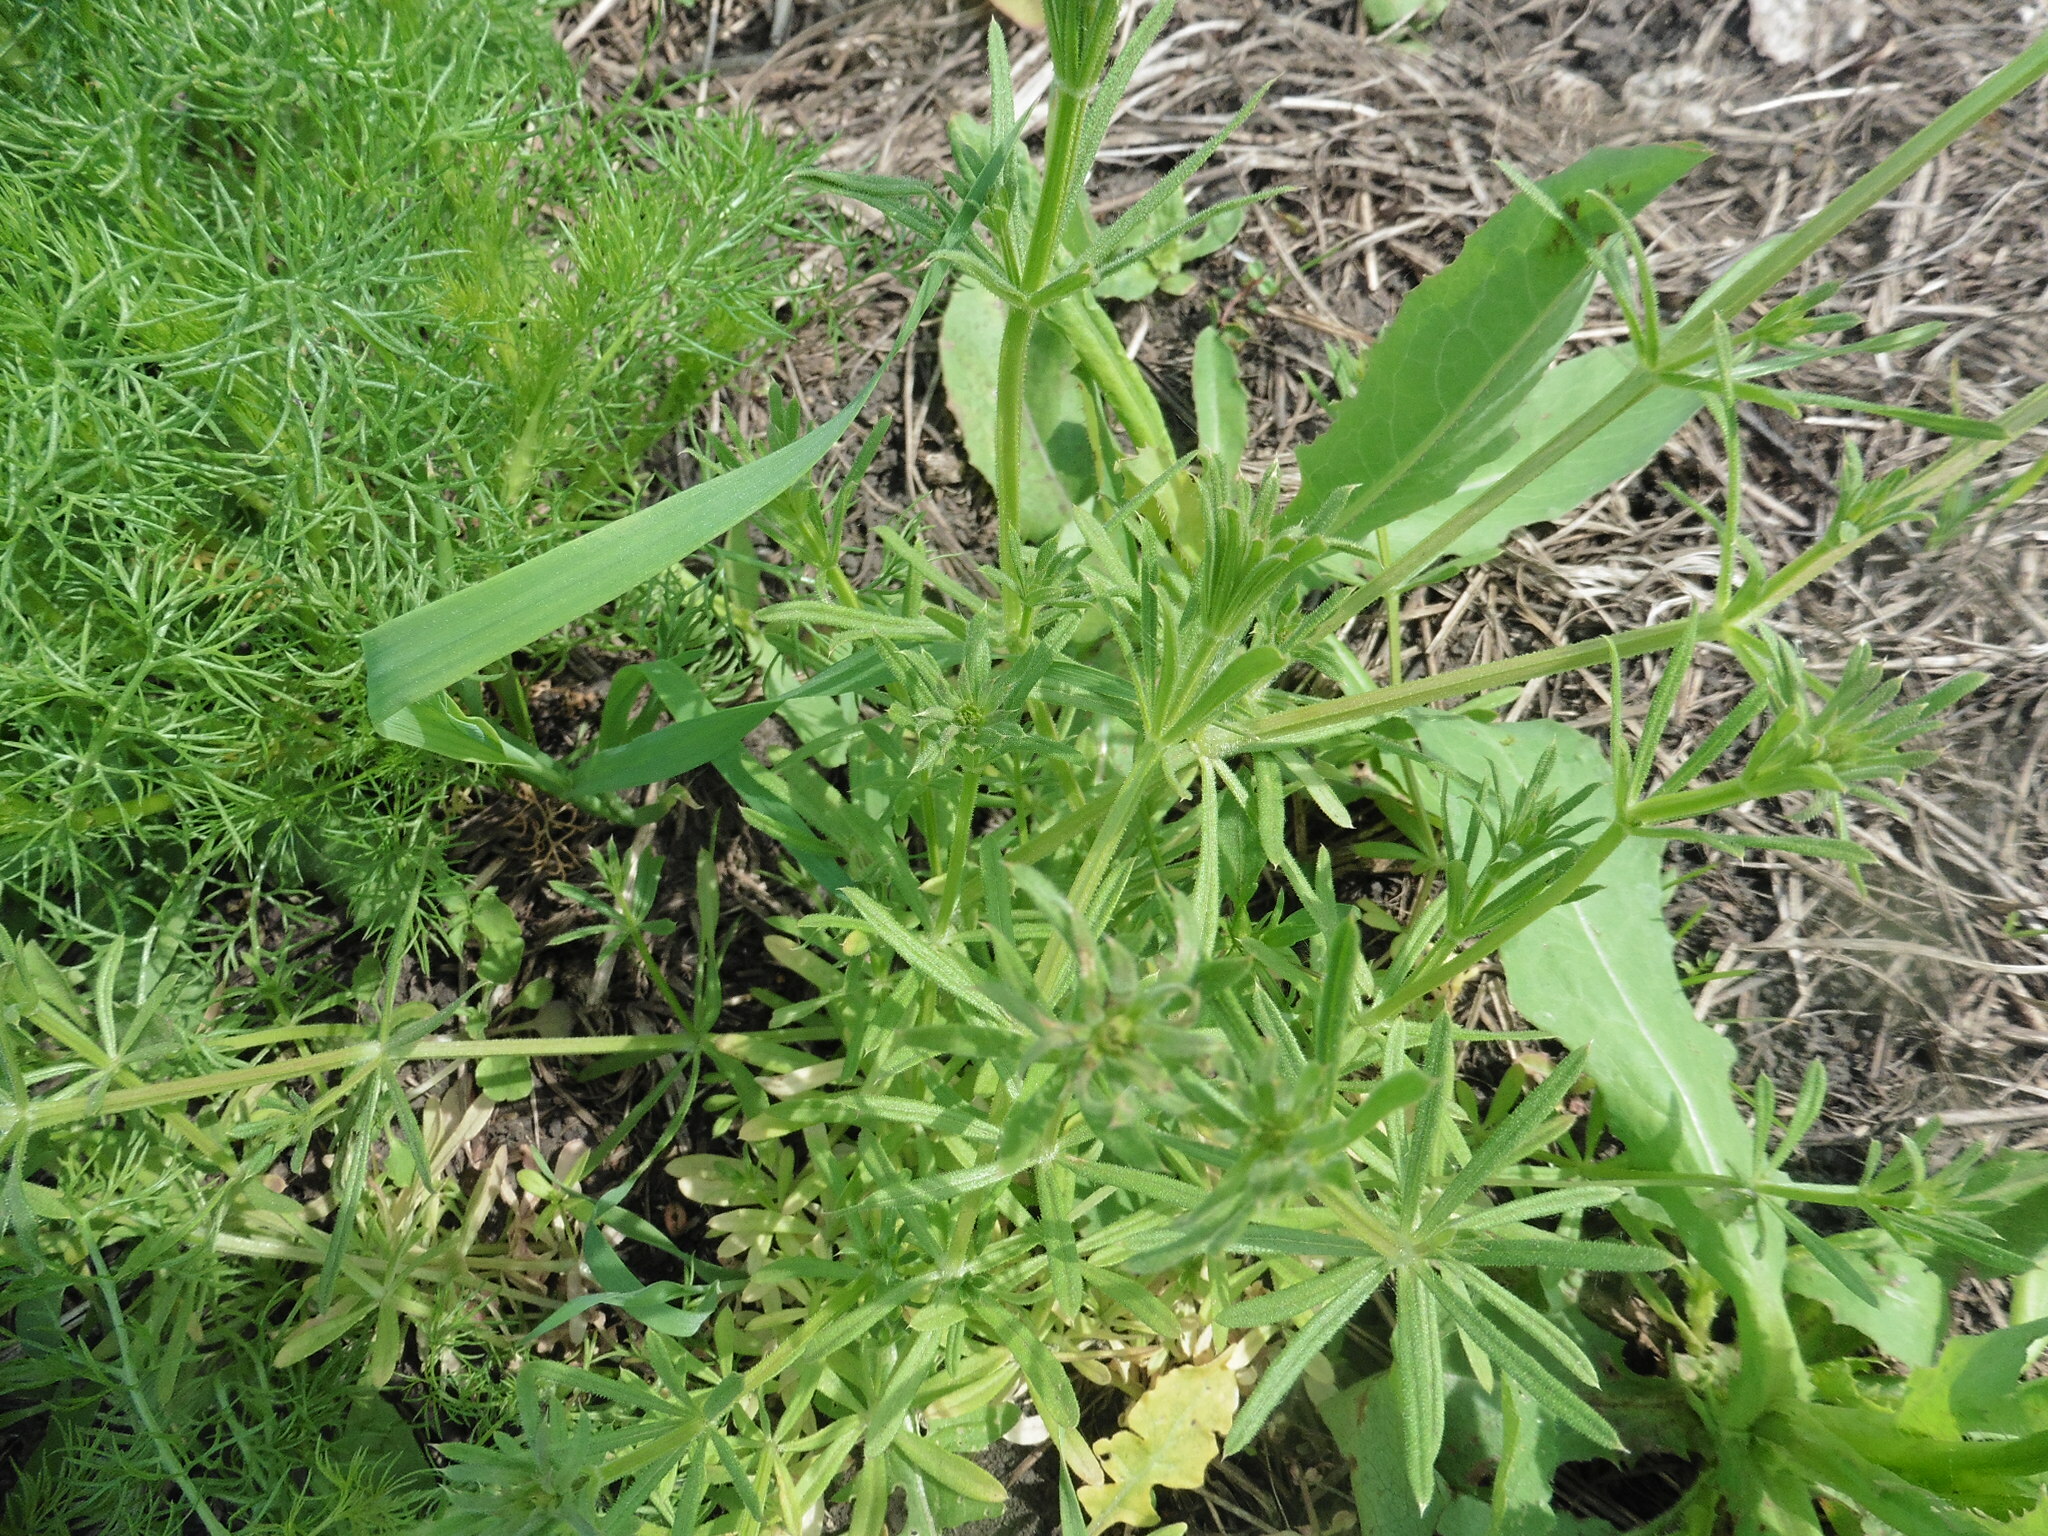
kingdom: Plantae
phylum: Tracheophyta
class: Magnoliopsida
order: Gentianales
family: Rubiaceae
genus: Galium
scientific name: Galium aparine
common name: Cleavers
